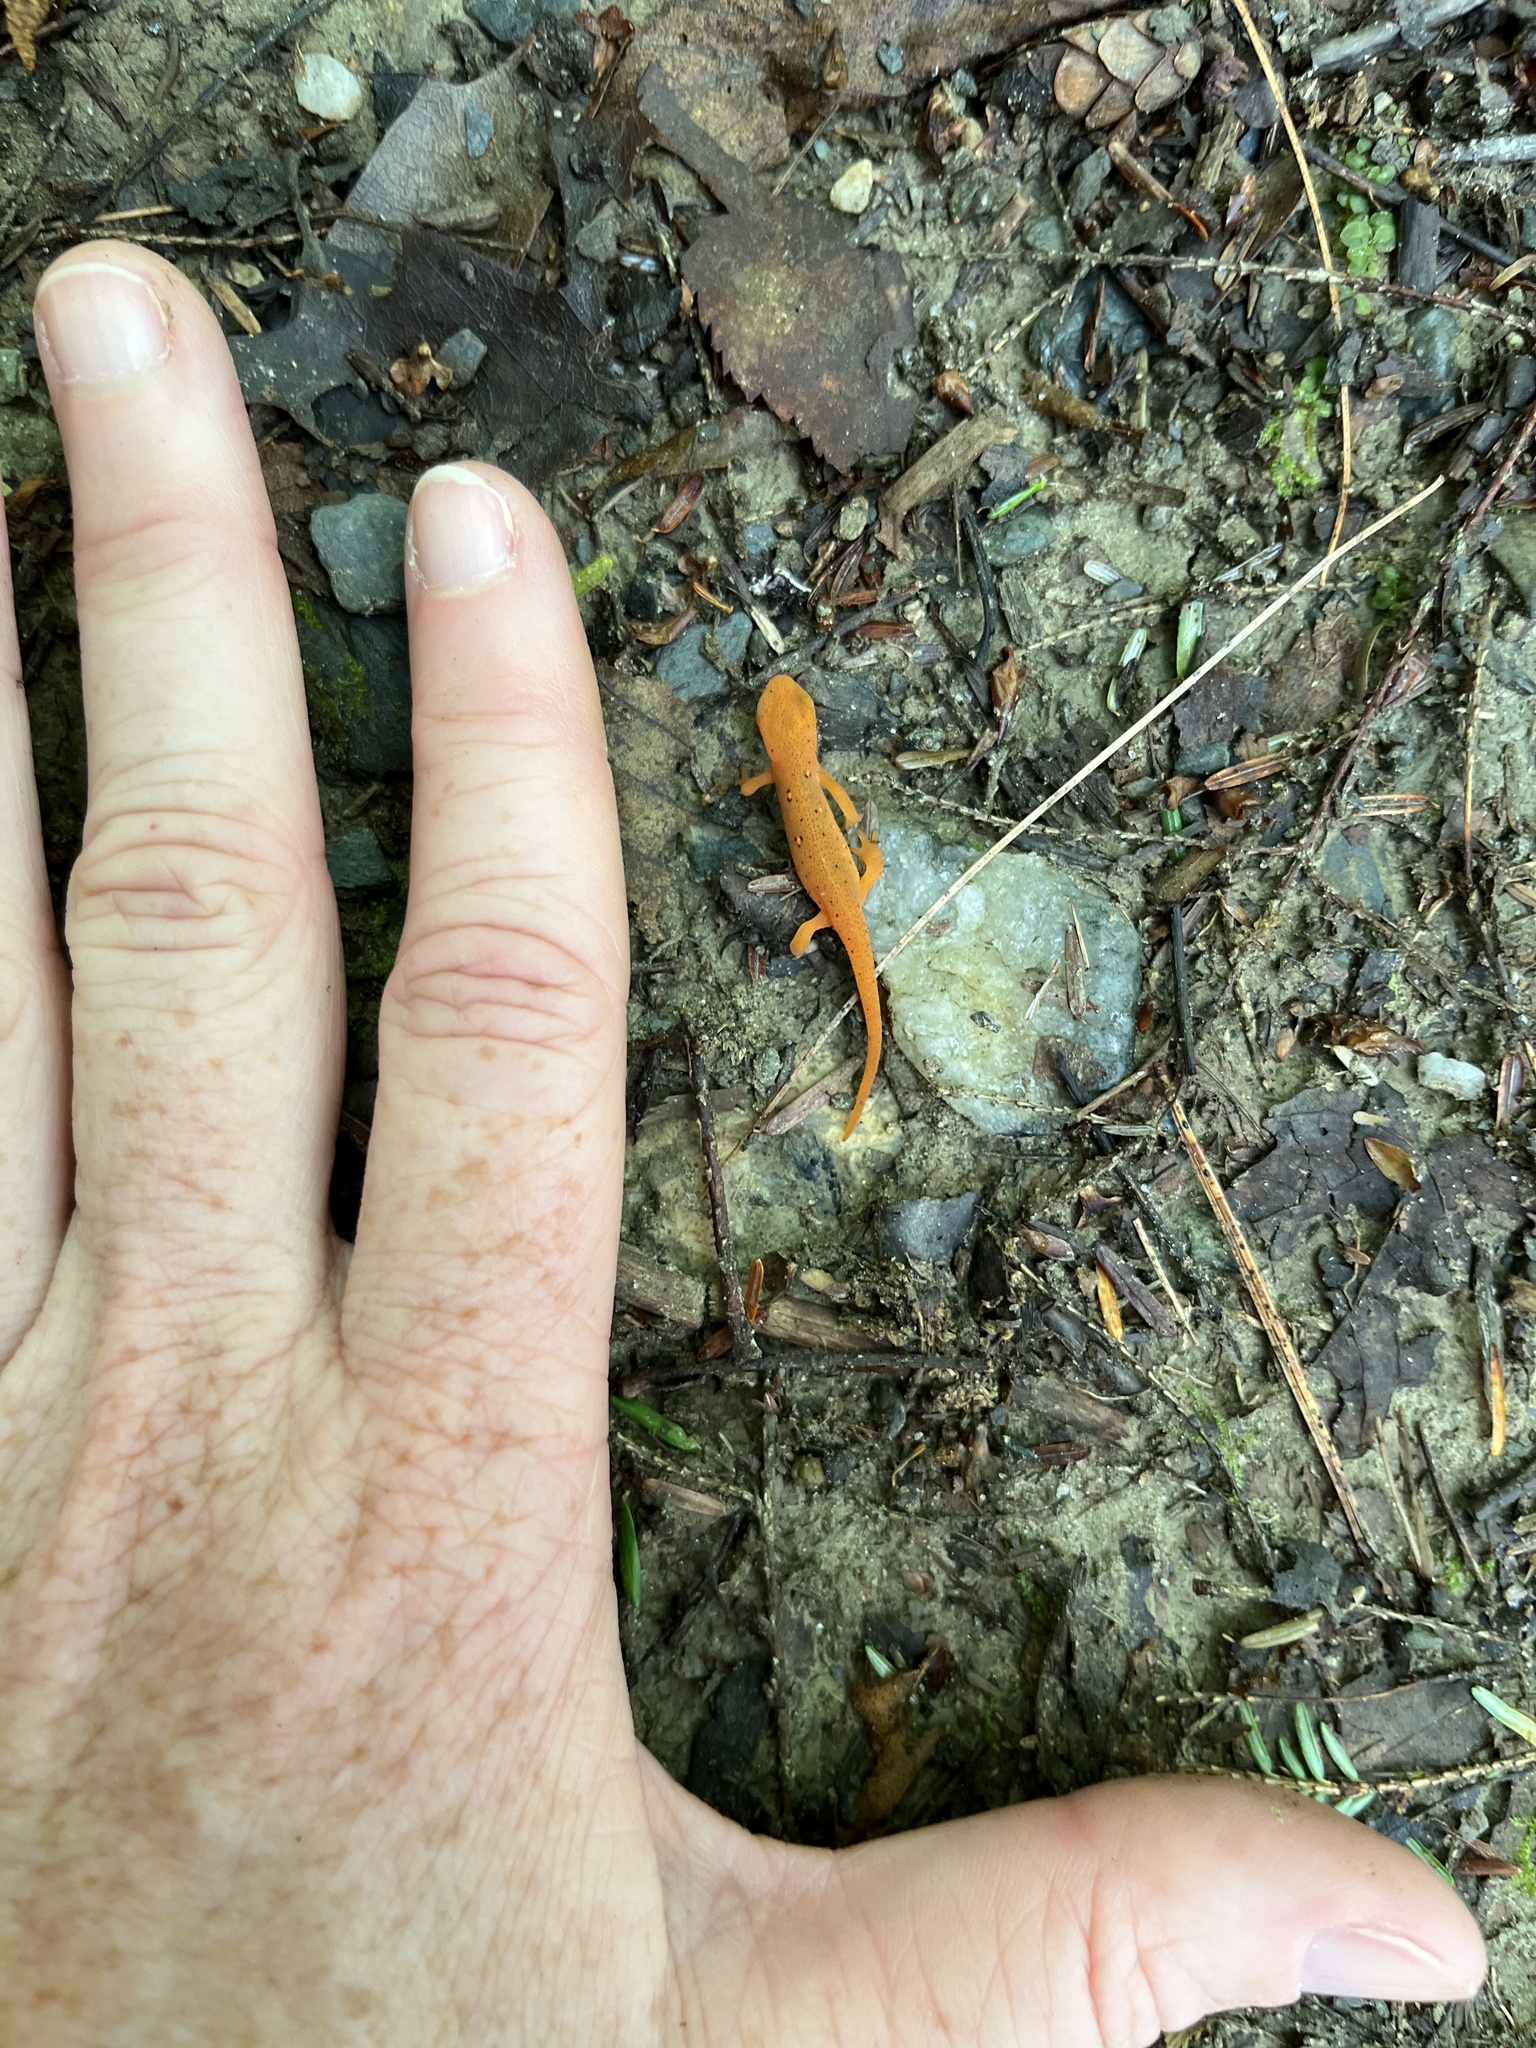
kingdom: Animalia
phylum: Chordata
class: Amphibia
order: Caudata
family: Salamandridae
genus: Notophthalmus
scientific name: Notophthalmus viridescens
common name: Eastern newt
